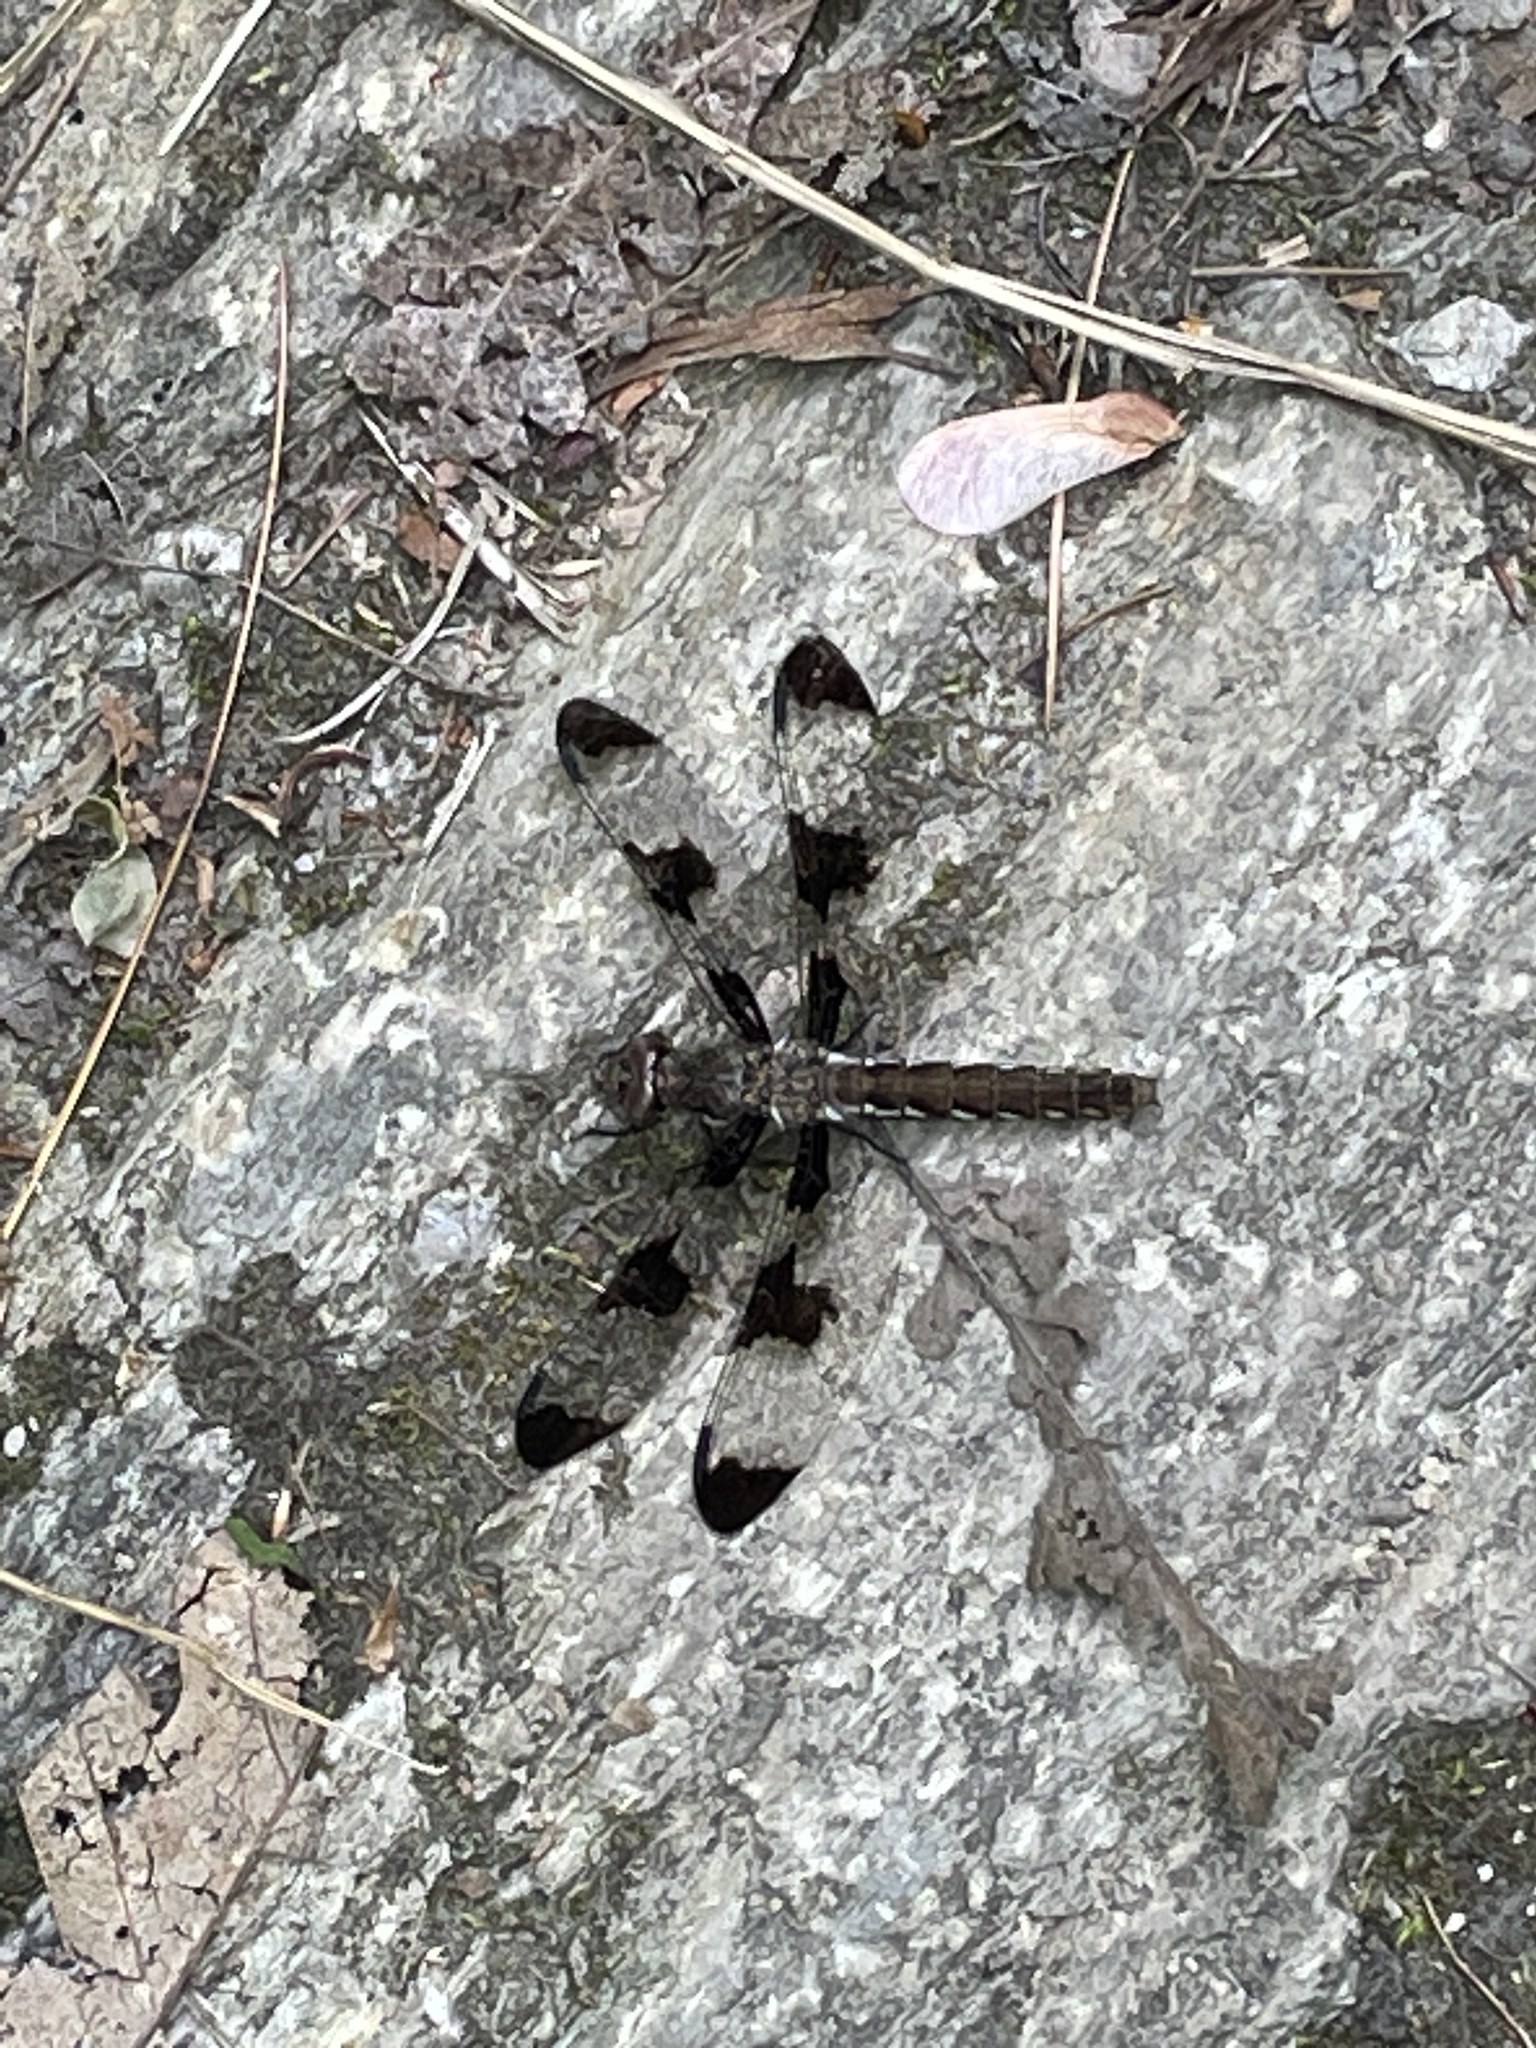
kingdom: Animalia
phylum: Arthropoda
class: Insecta
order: Odonata
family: Libellulidae
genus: Plathemis
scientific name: Plathemis lydia
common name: Common whitetail
